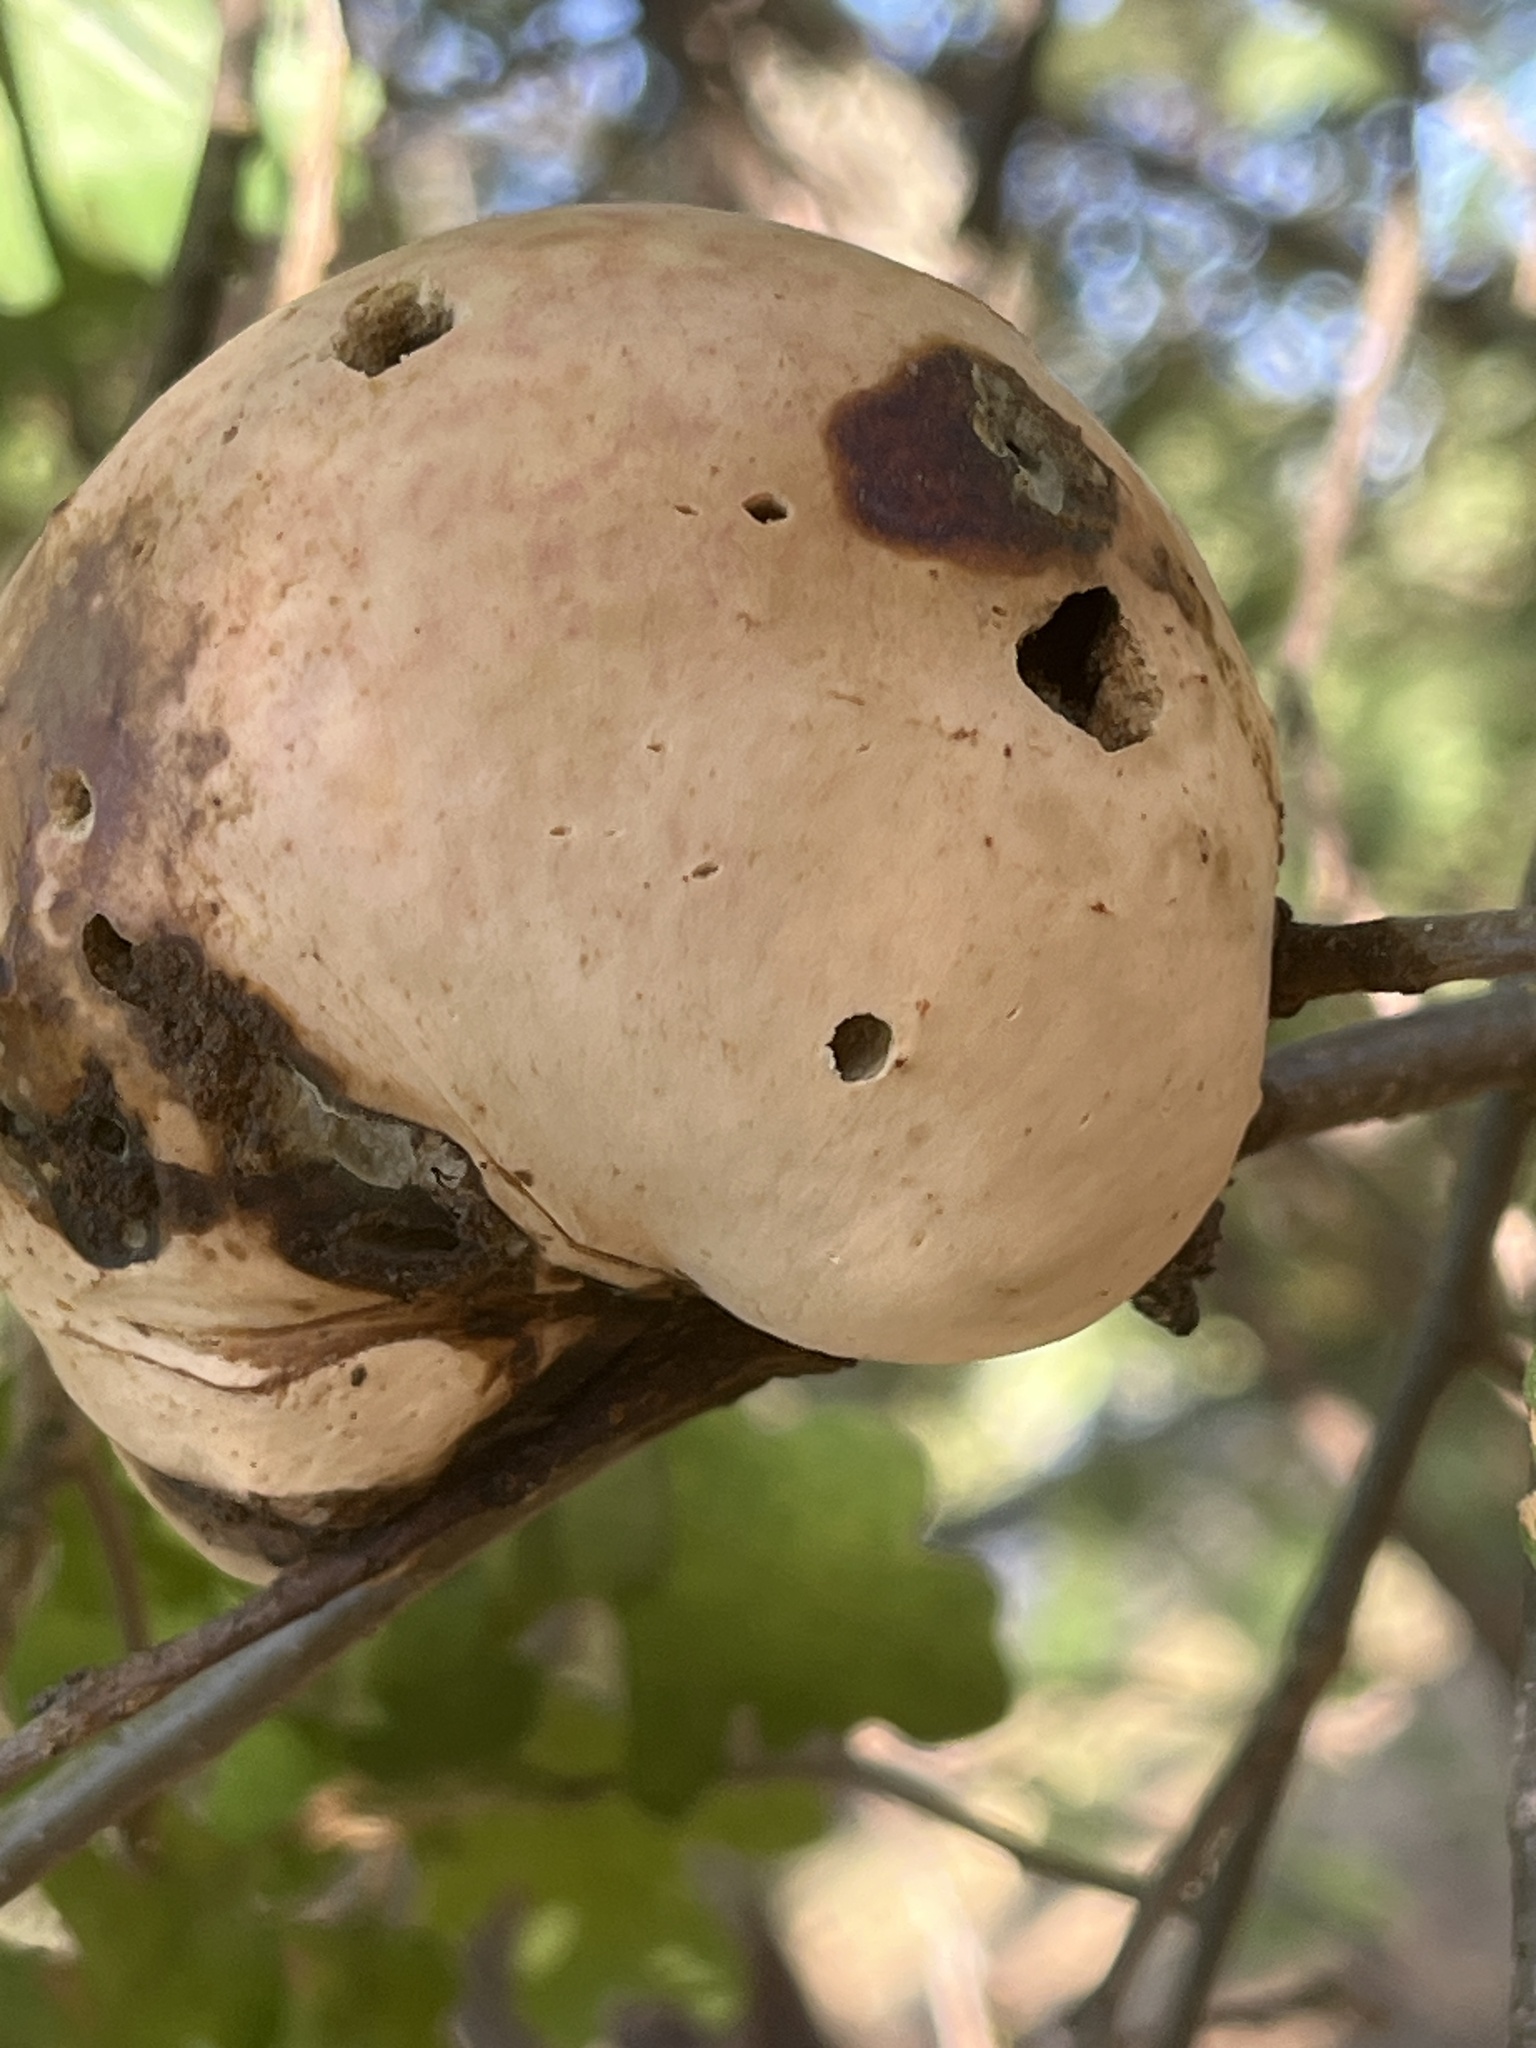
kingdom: Animalia
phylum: Arthropoda
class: Insecta
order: Hymenoptera
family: Cynipidae
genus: Andricus
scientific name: Andricus quercuscalifornicus
